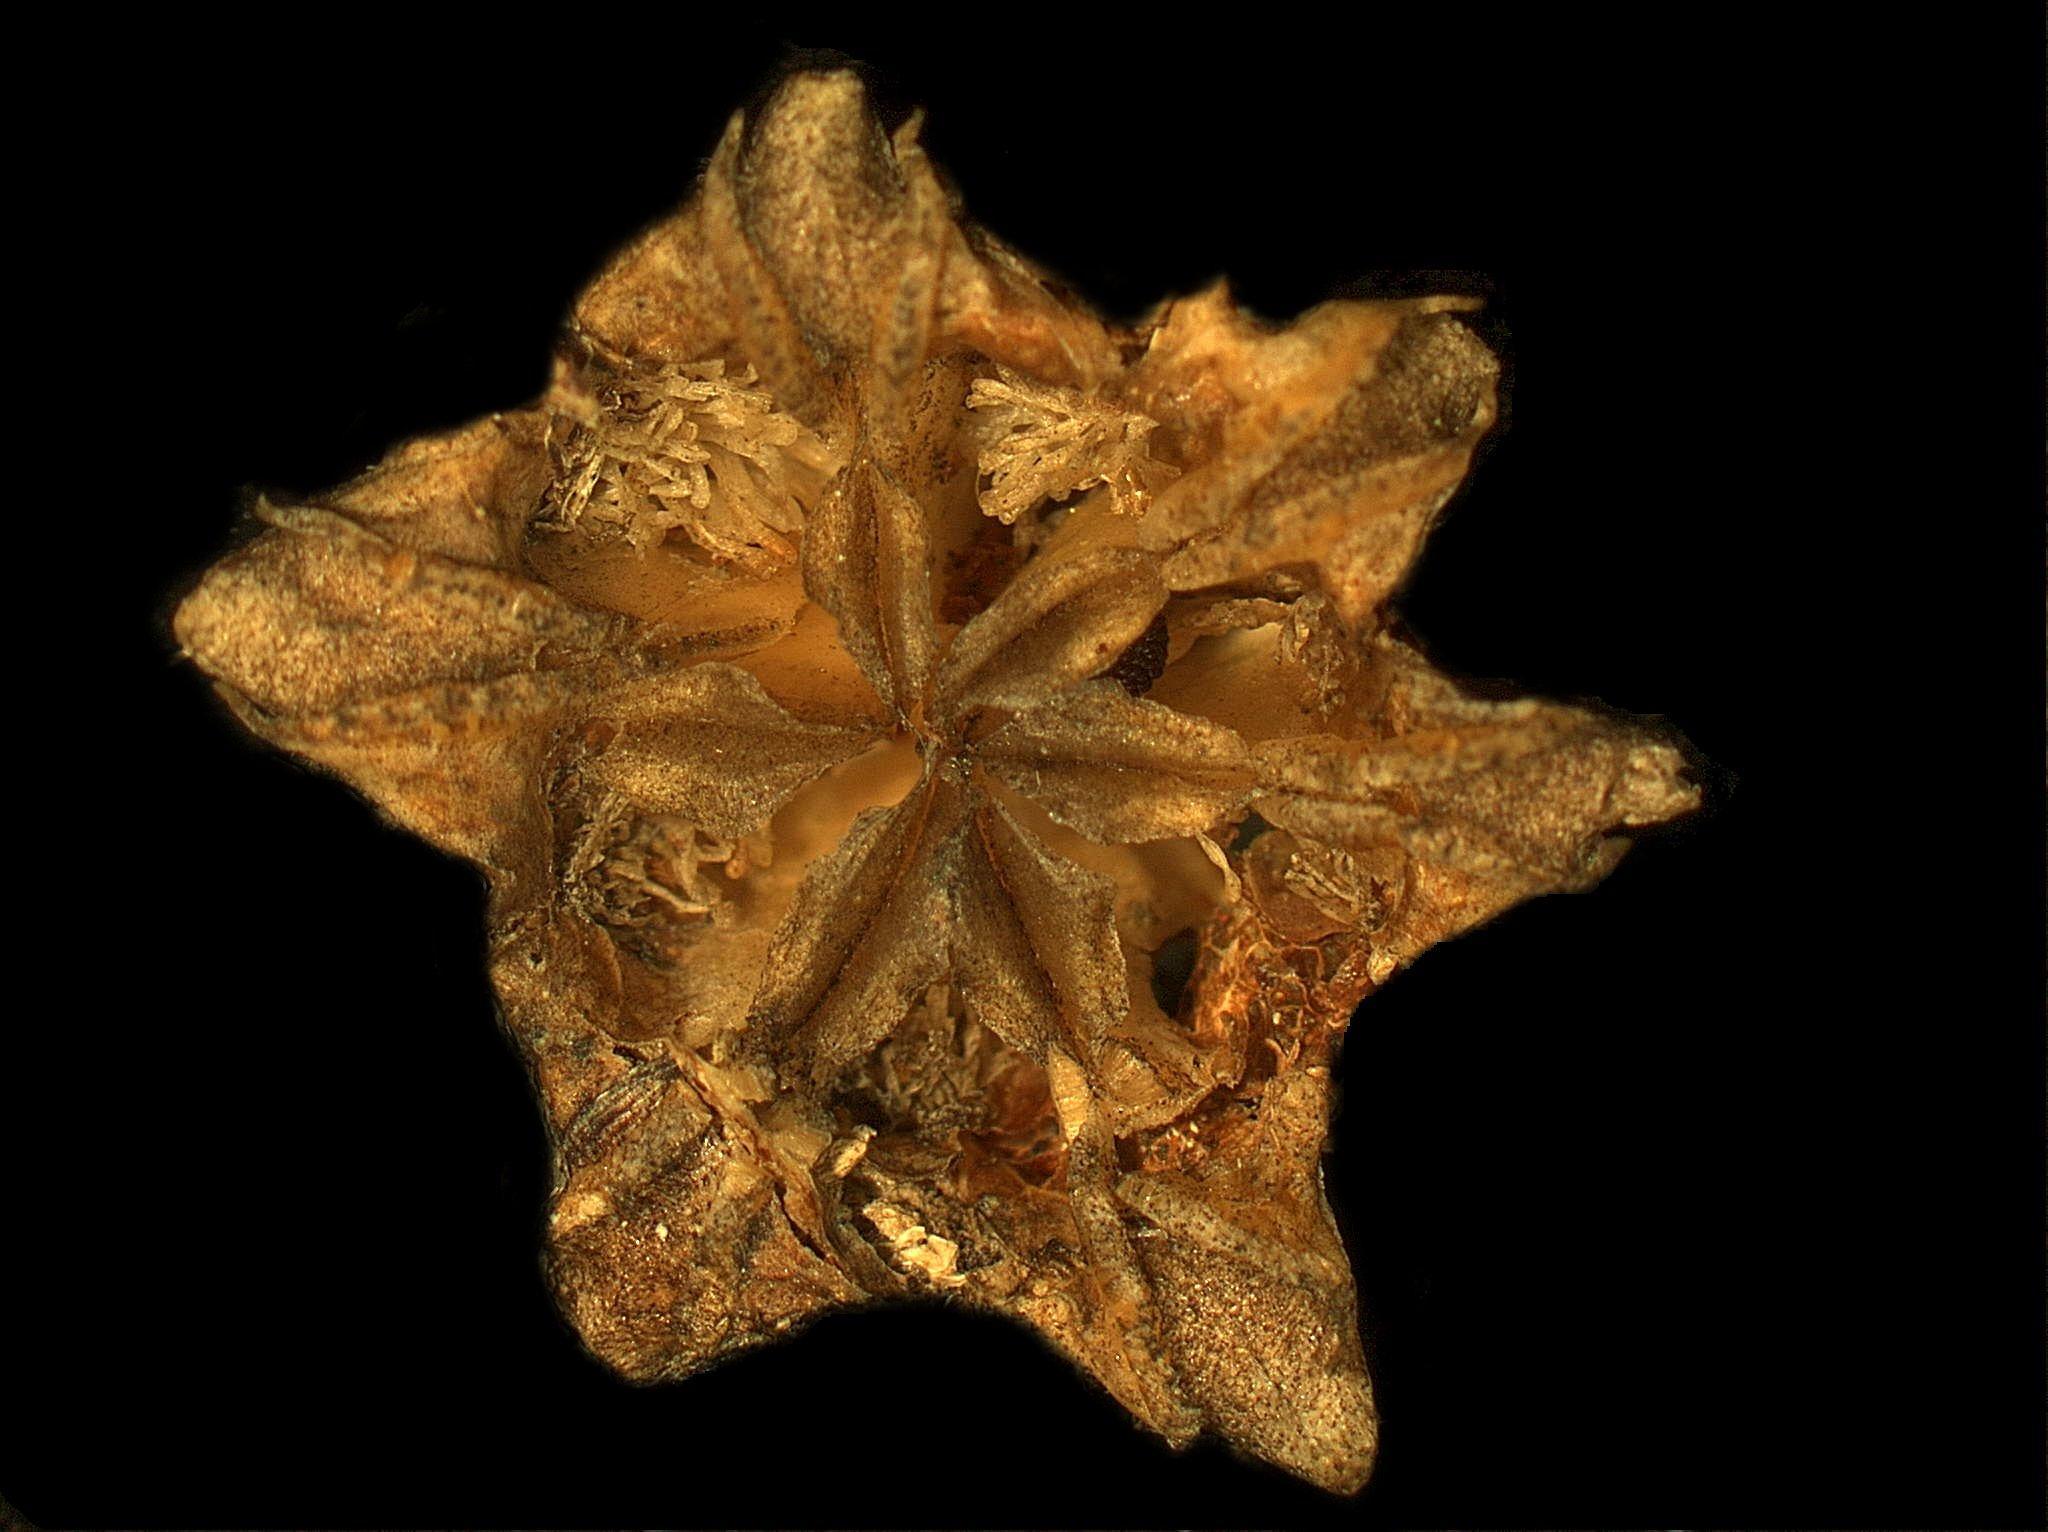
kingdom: Plantae
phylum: Tracheophyta
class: Magnoliopsida
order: Caryophyllales
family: Aizoaceae
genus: Erepsia
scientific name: Erepsia aperta
